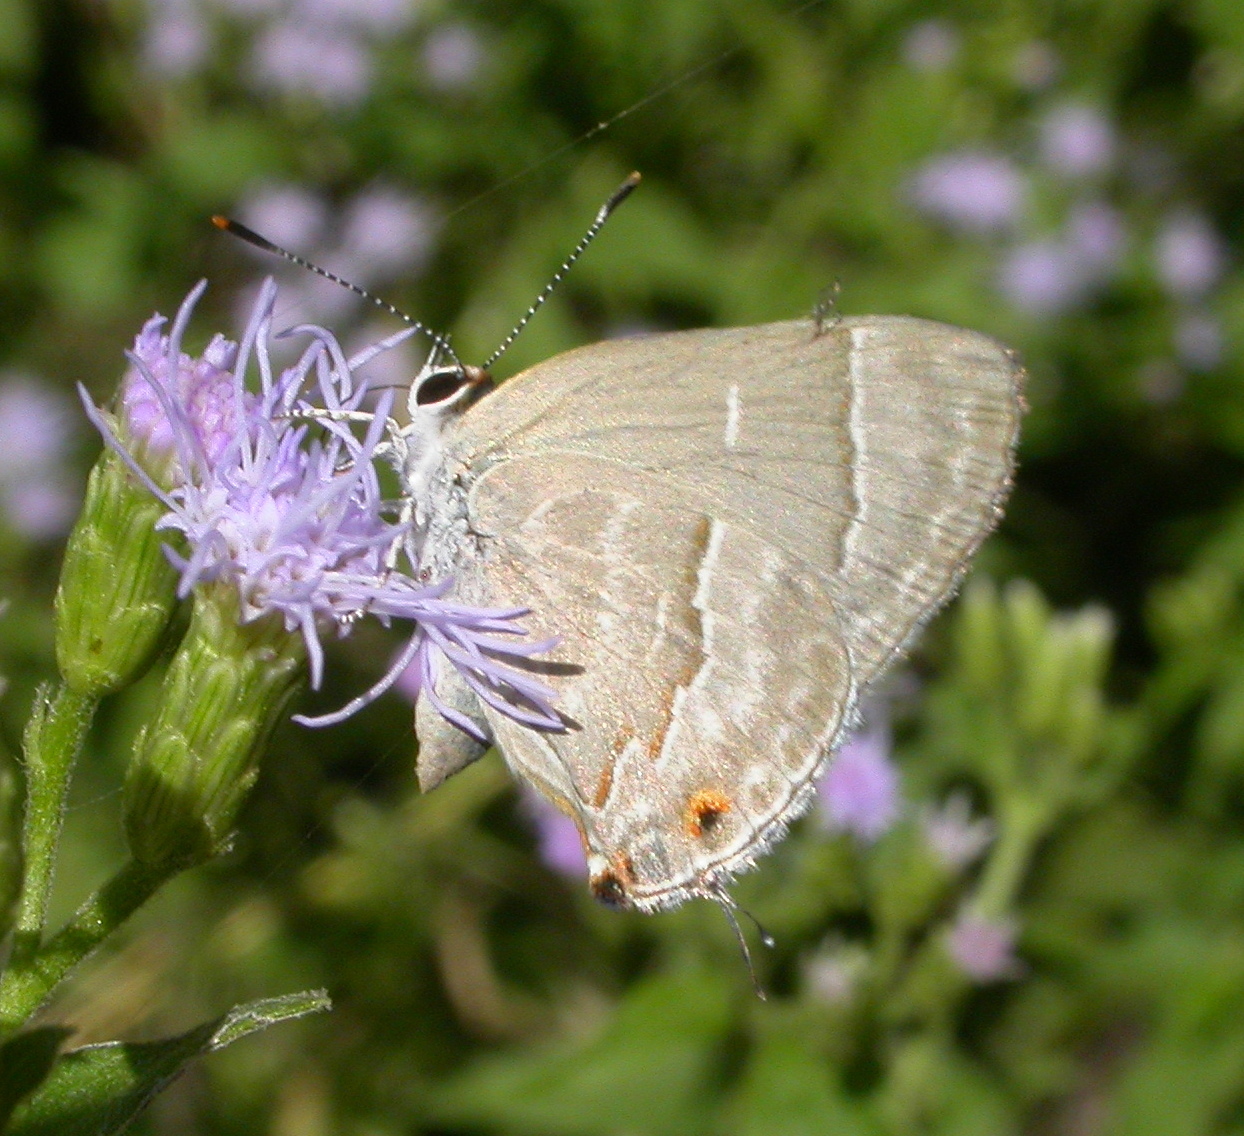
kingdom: Animalia
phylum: Arthropoda
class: Insecta
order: Lepidoptera
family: Lycaenidae
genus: Thecla
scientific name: Thecla yojoa
